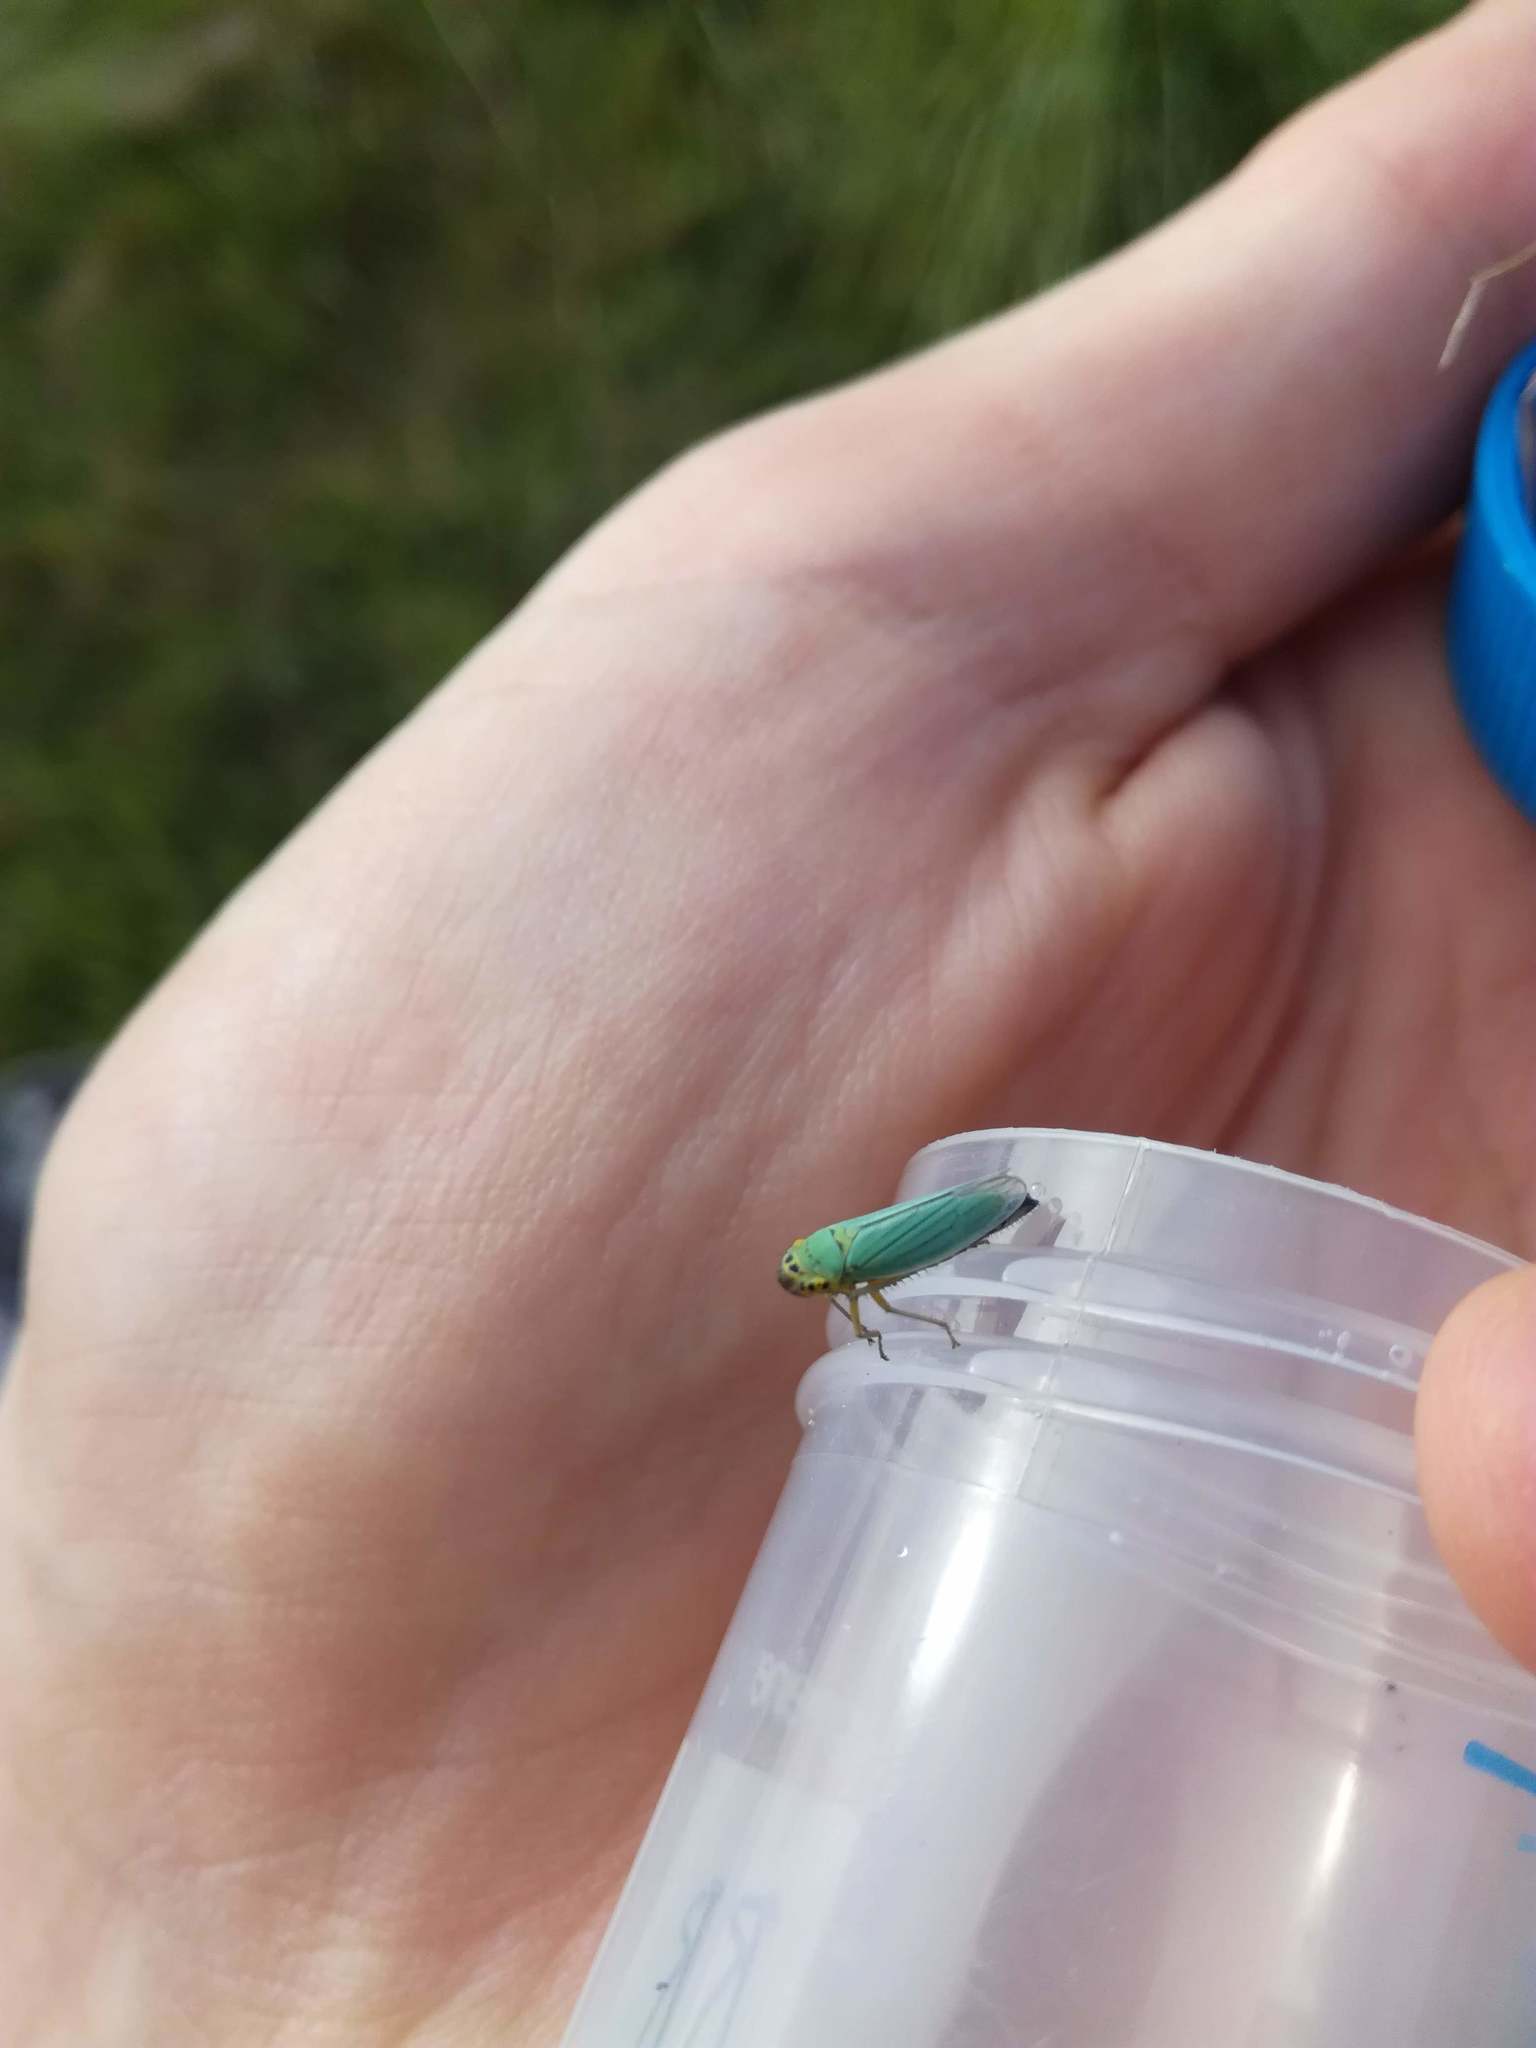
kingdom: Animalia
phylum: Arthropoda
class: Insecta
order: Hemiptera
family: Cicadellidae
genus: Cicadella
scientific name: Cicadella viridis
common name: Leafhopper
